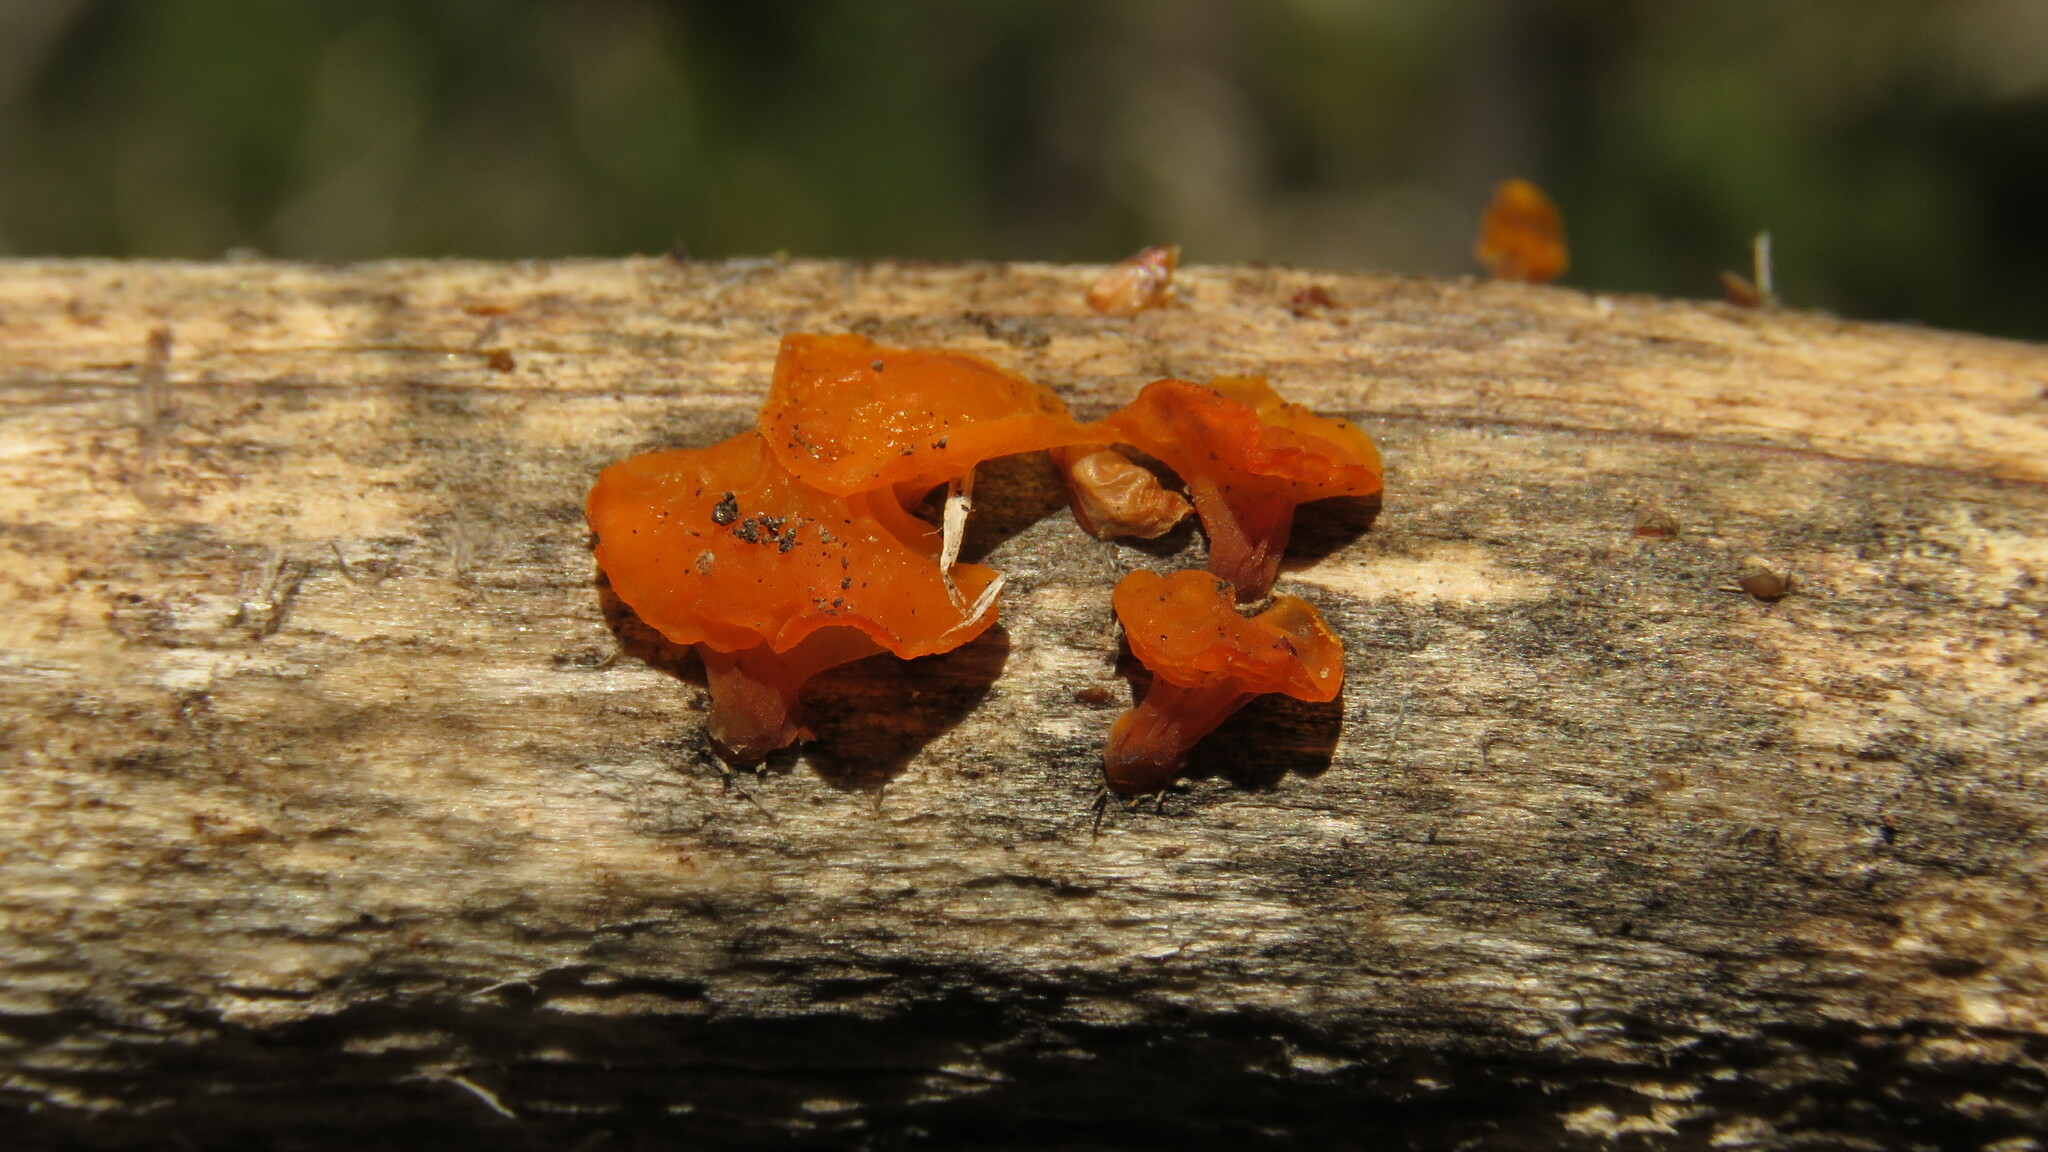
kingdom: Fungi
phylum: Basidiomycota
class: Dacrymycetes
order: Dacrymycetales
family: Dacrymycetaceae
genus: Guepiniopsis
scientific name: Guepiniopsis alpina
